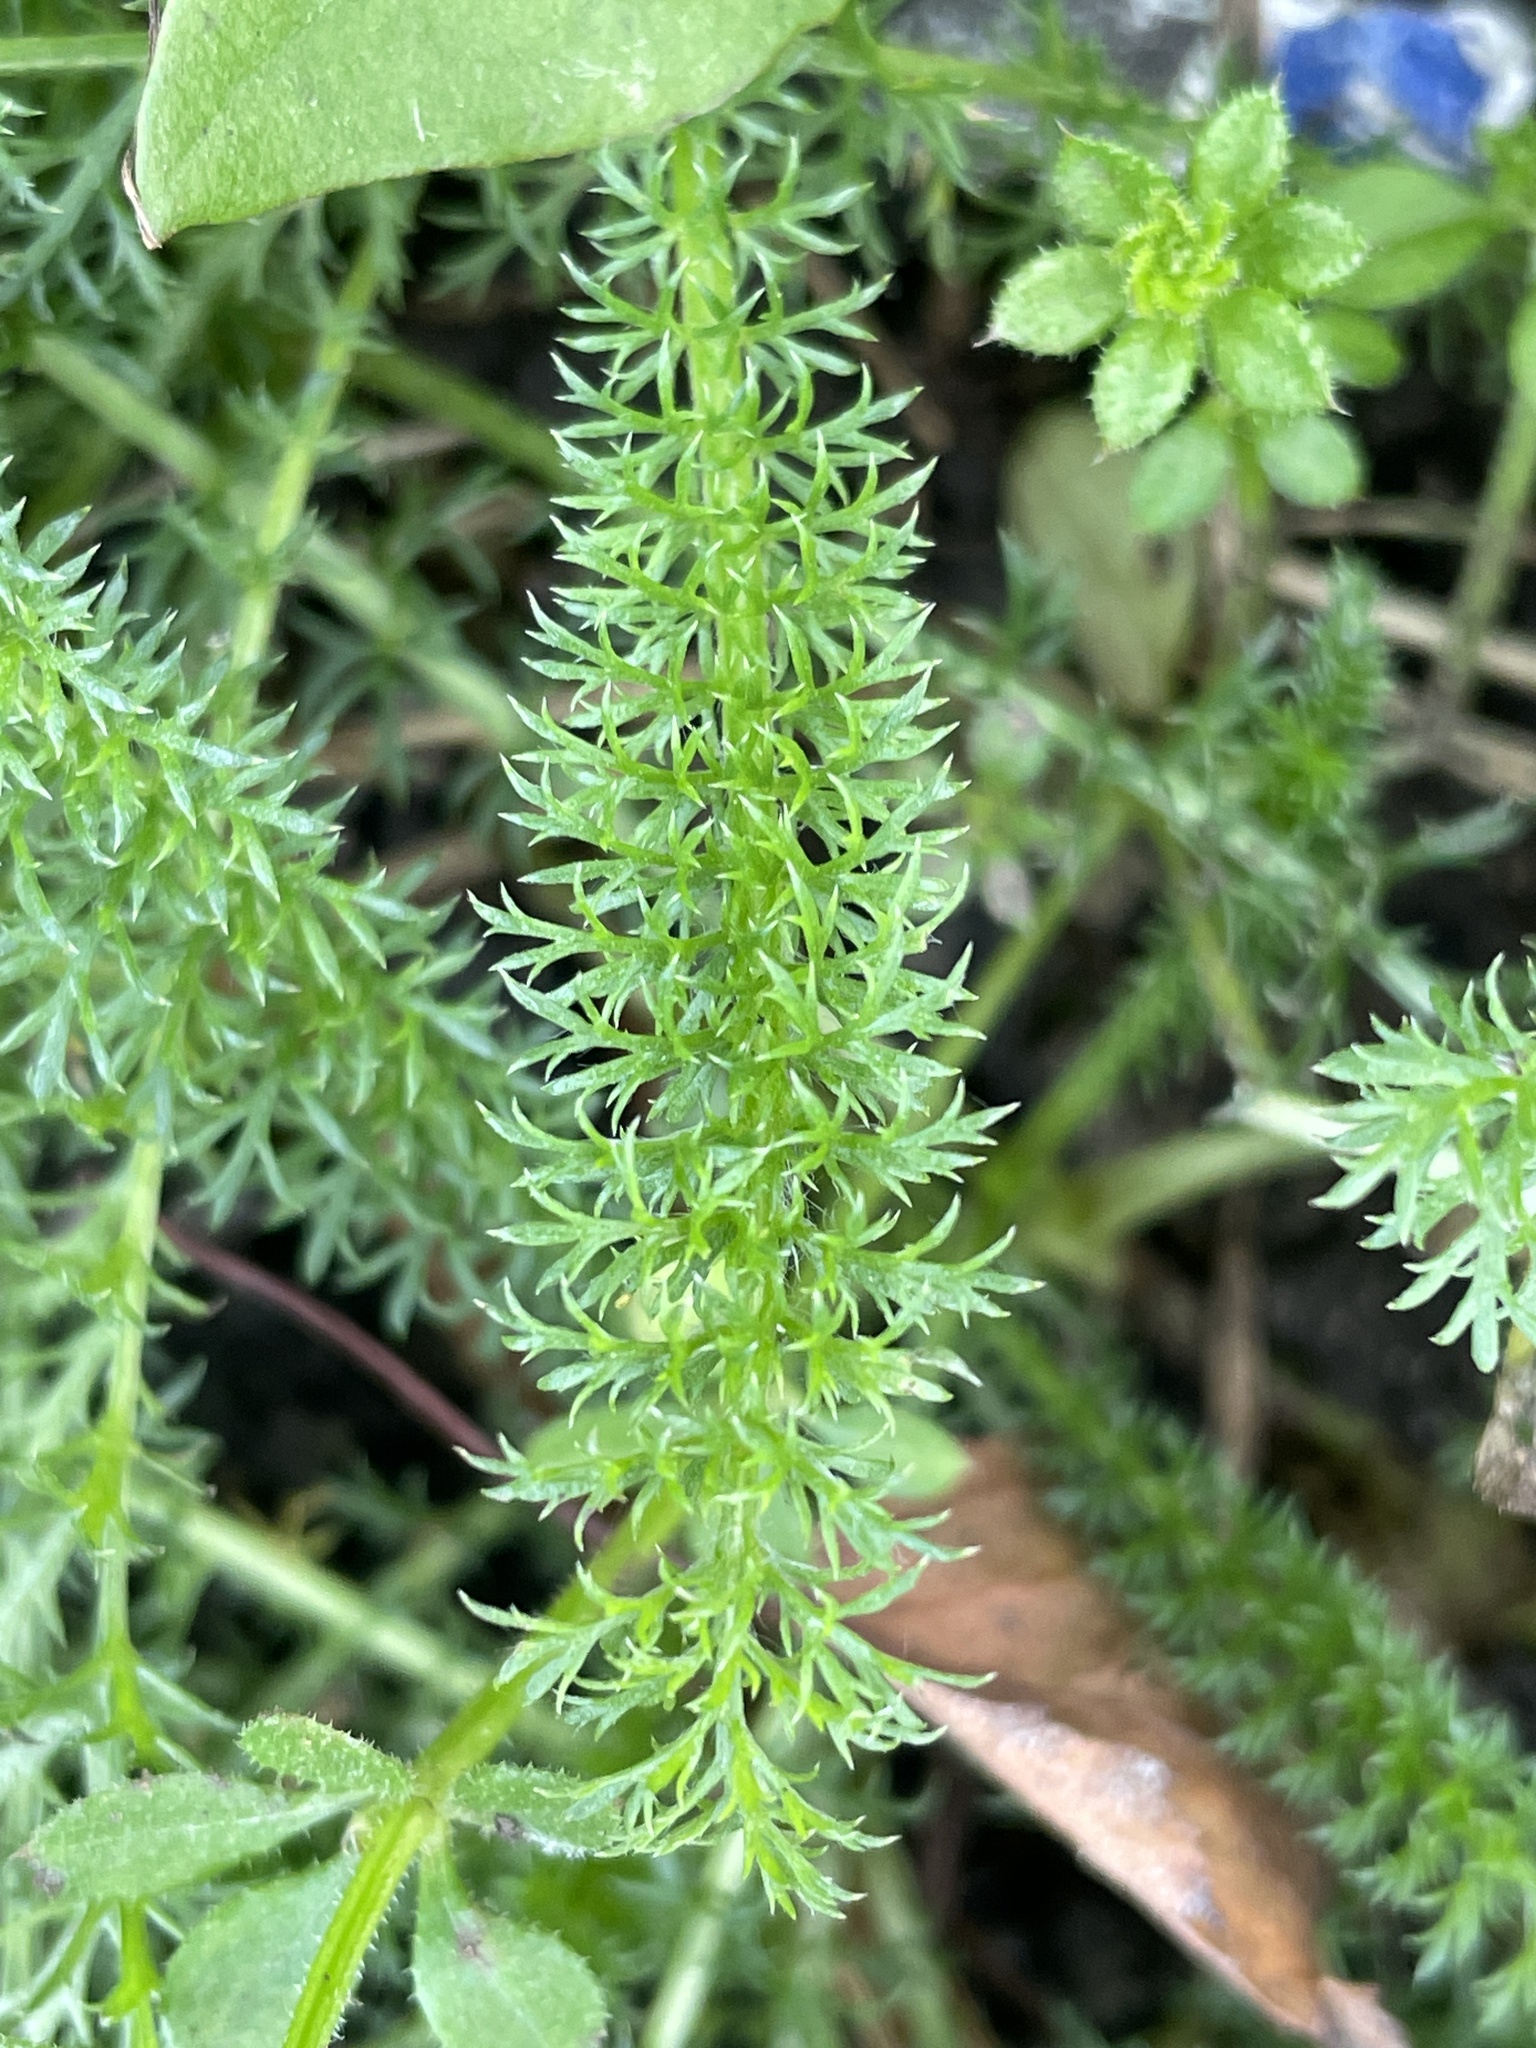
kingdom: Plantae
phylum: Tracheophyta
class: Magnoliopsida
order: Asterales
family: Asteraceae
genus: Achillea
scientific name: Achillea millefolium
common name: Yarrow
